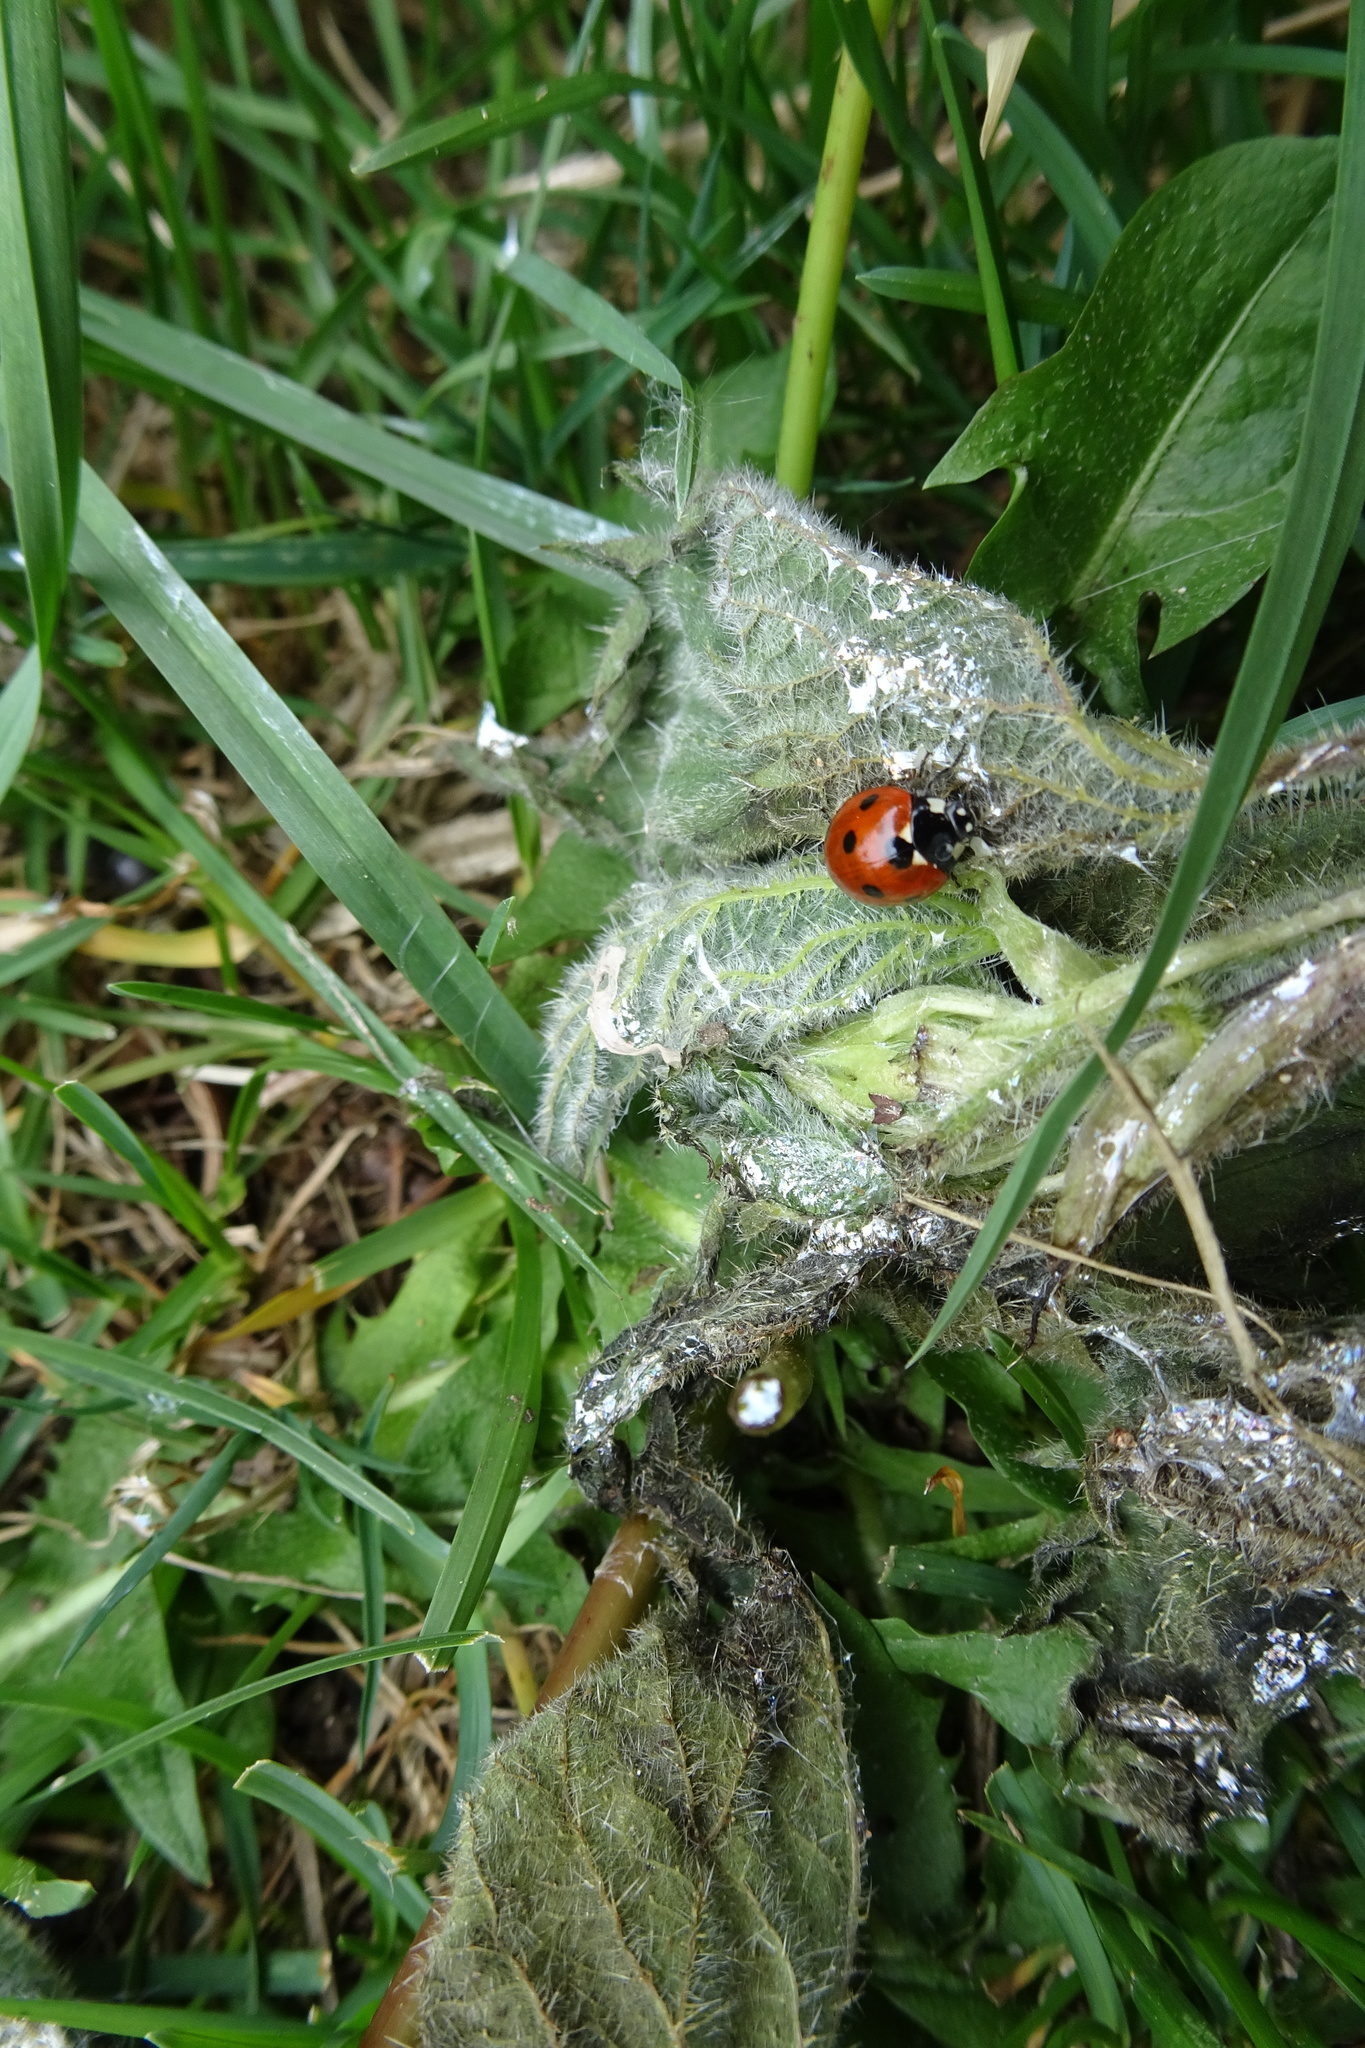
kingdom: Animalia
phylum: Arthropoda
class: Insecta
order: Coleoptera
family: Coccinellidae
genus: Coccinella
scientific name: Coccinella septempunctata
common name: Sevenspotted lady beetle
